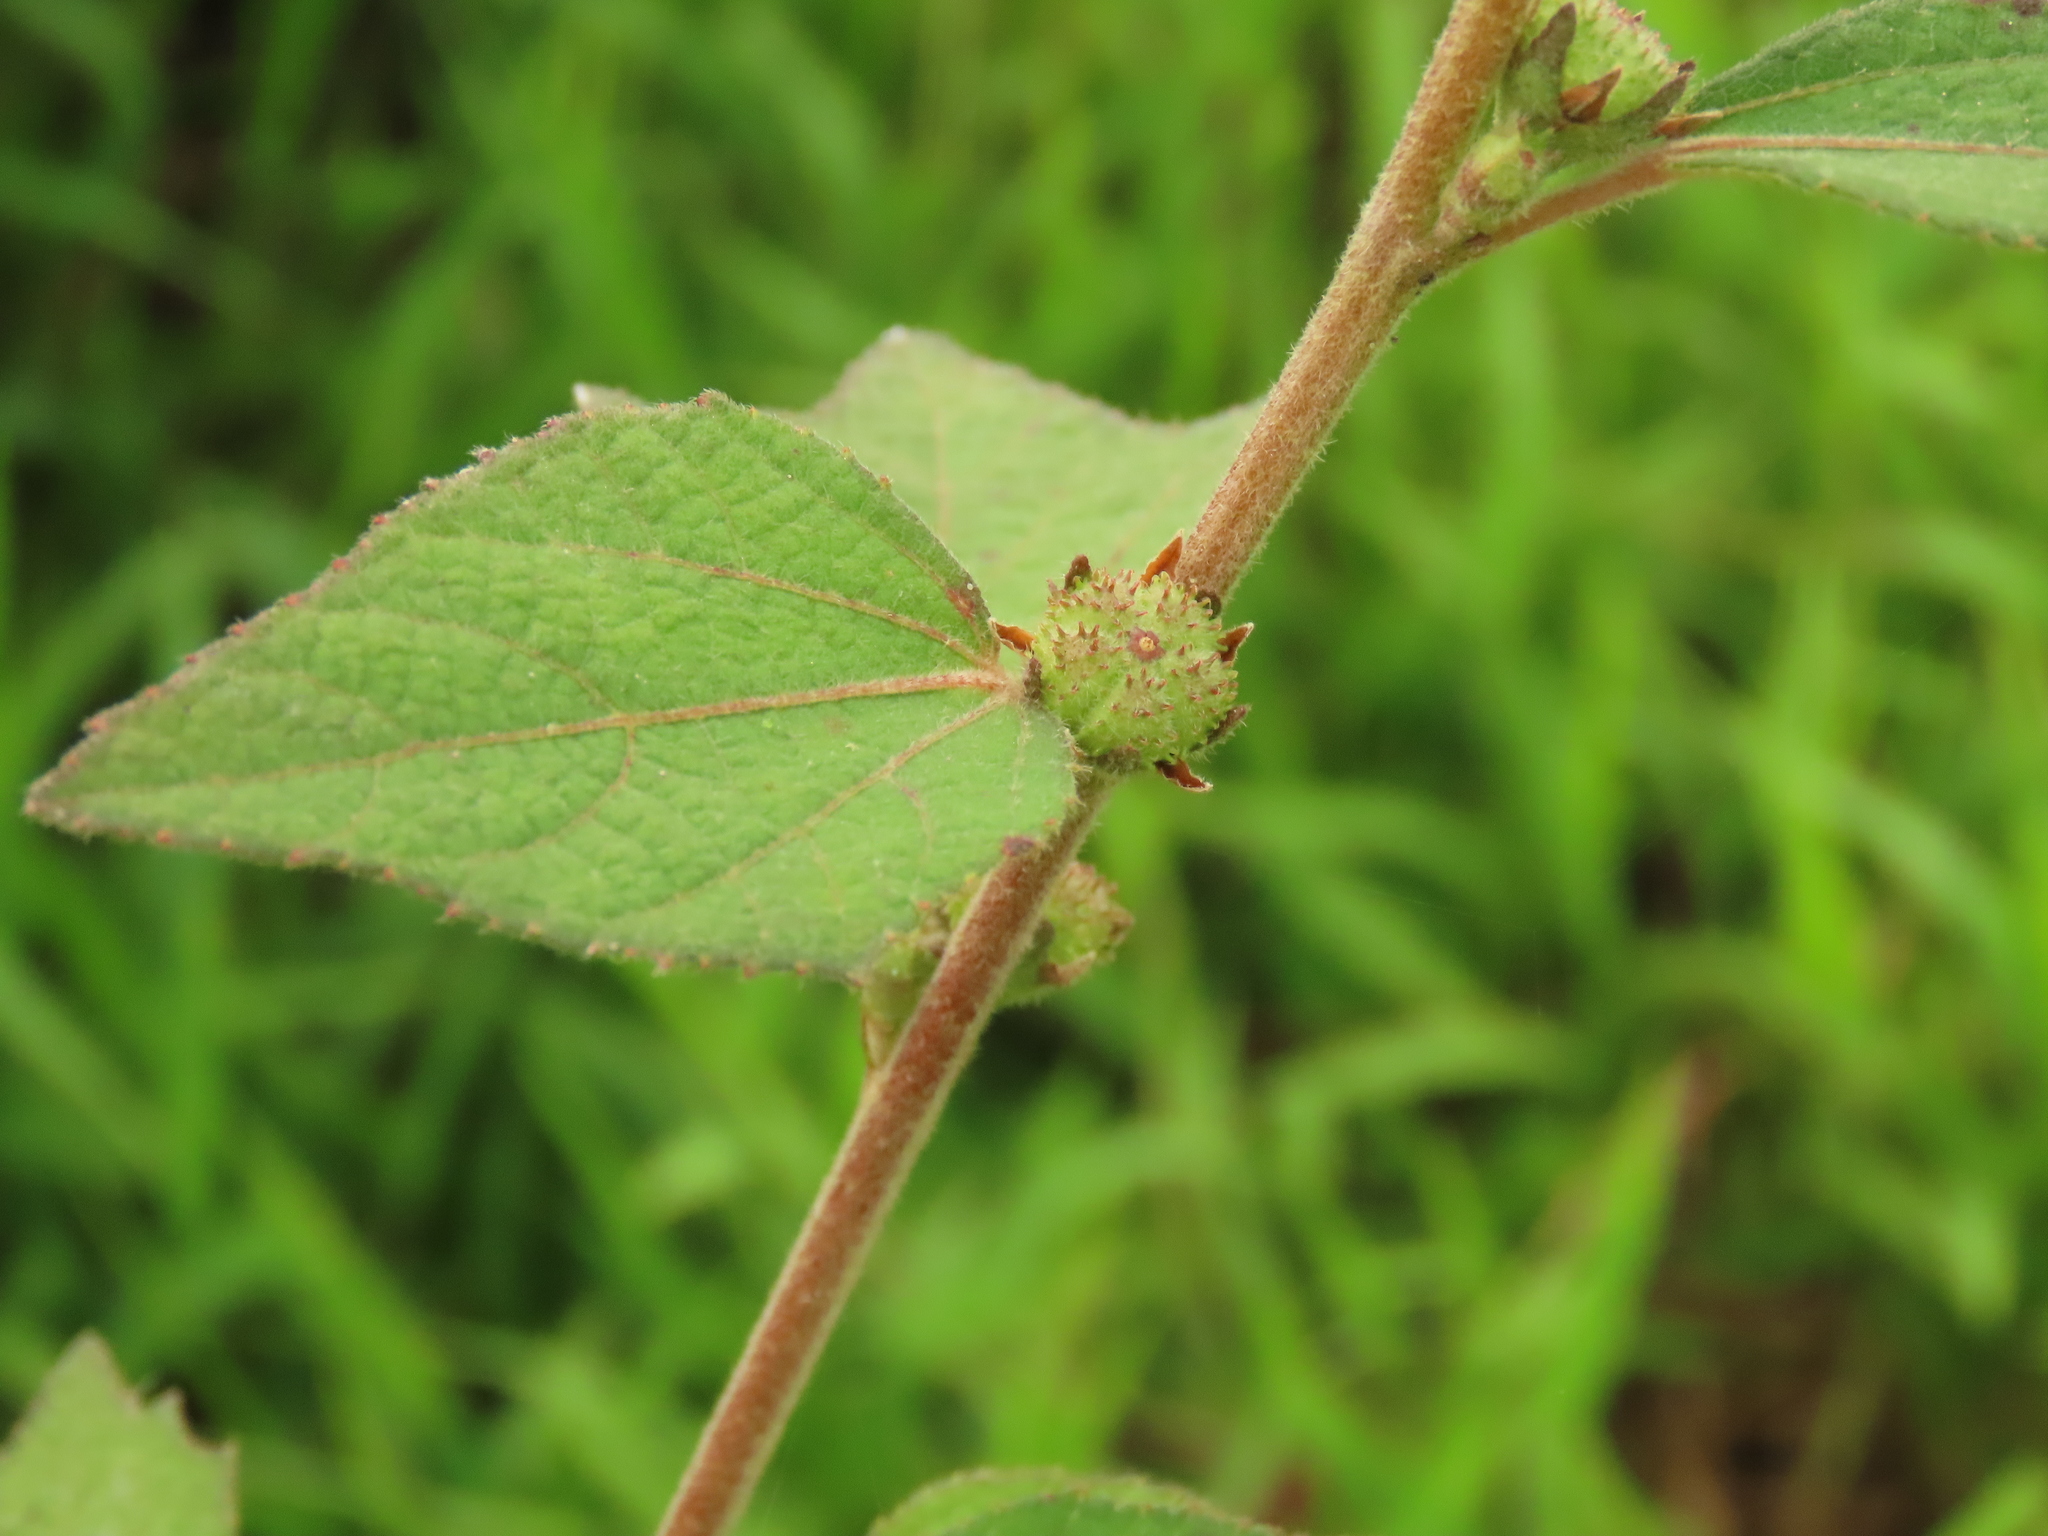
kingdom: Plantae
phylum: Tracheophyta
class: Magnoliopsida
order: Malvales
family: Malvaceae
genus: Urena
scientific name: Urena lobata
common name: Caesarweed
